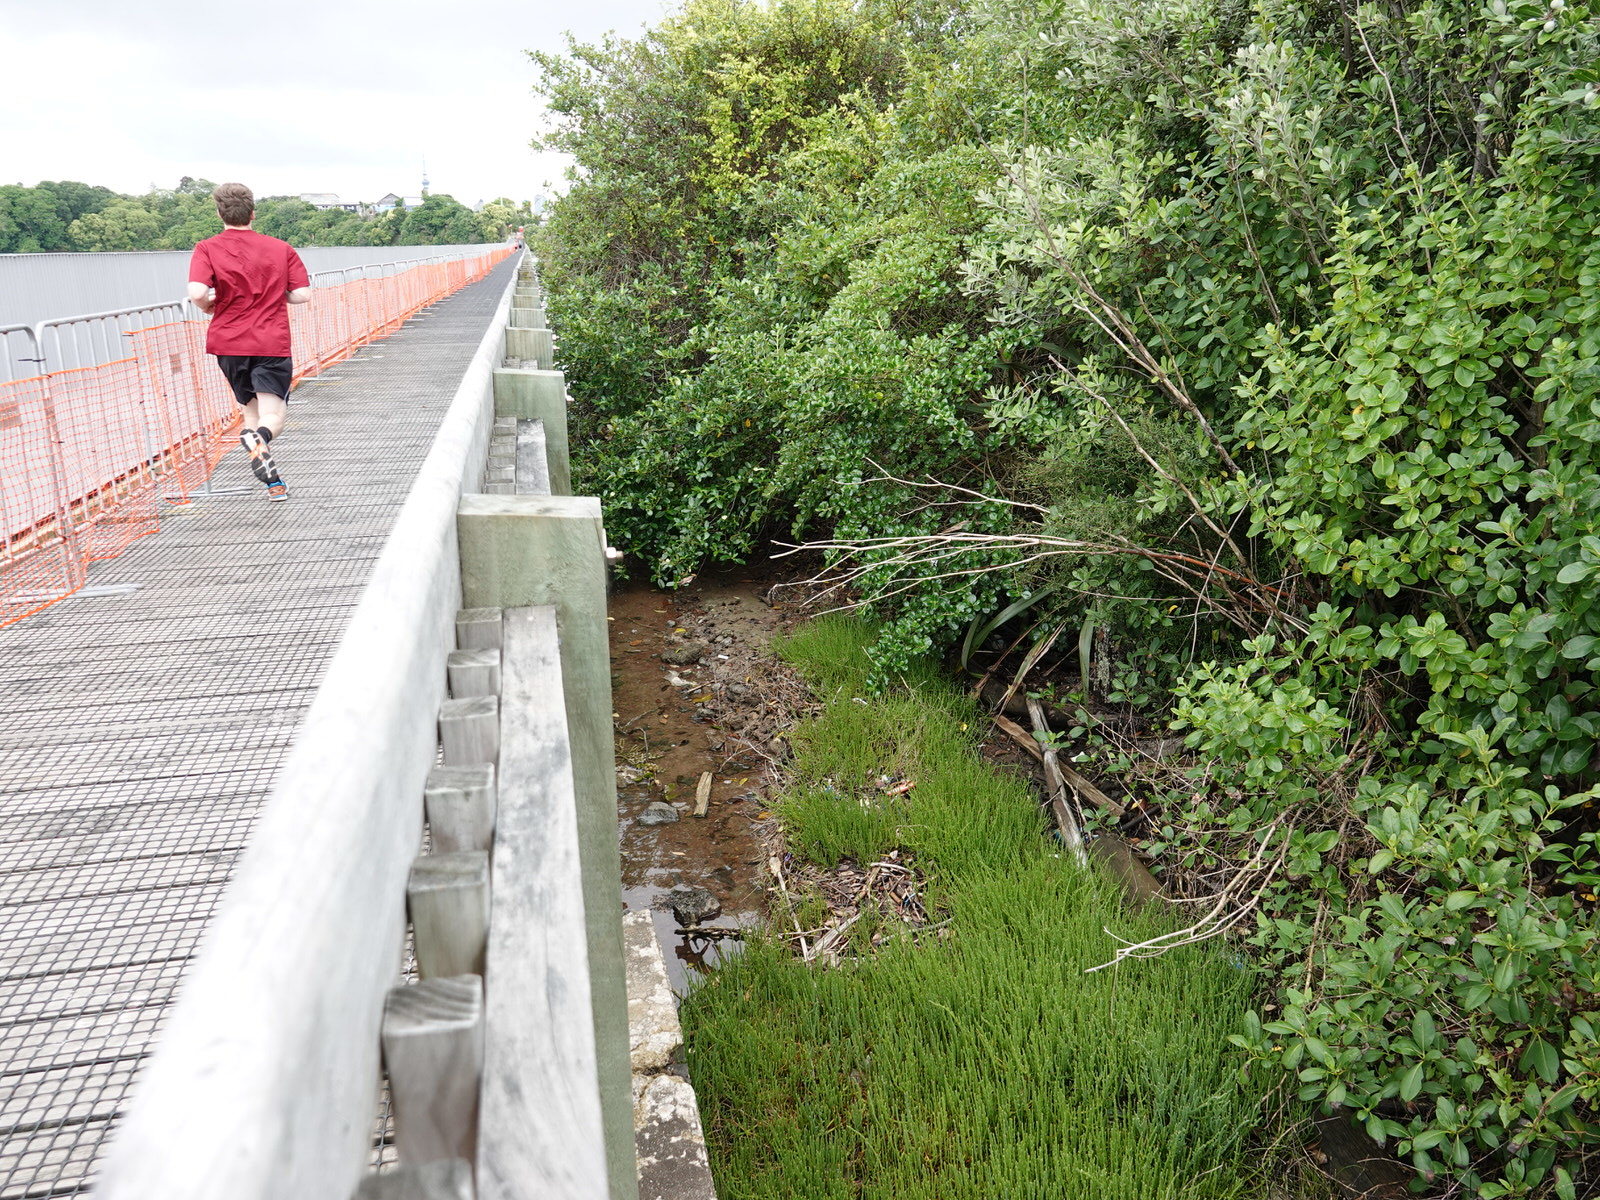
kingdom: Plantae
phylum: Tracheophyta
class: Magnoliopsida
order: Caryophyllales
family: Amaranthaceae
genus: Salicornia
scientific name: Salicornia quinqueflora
